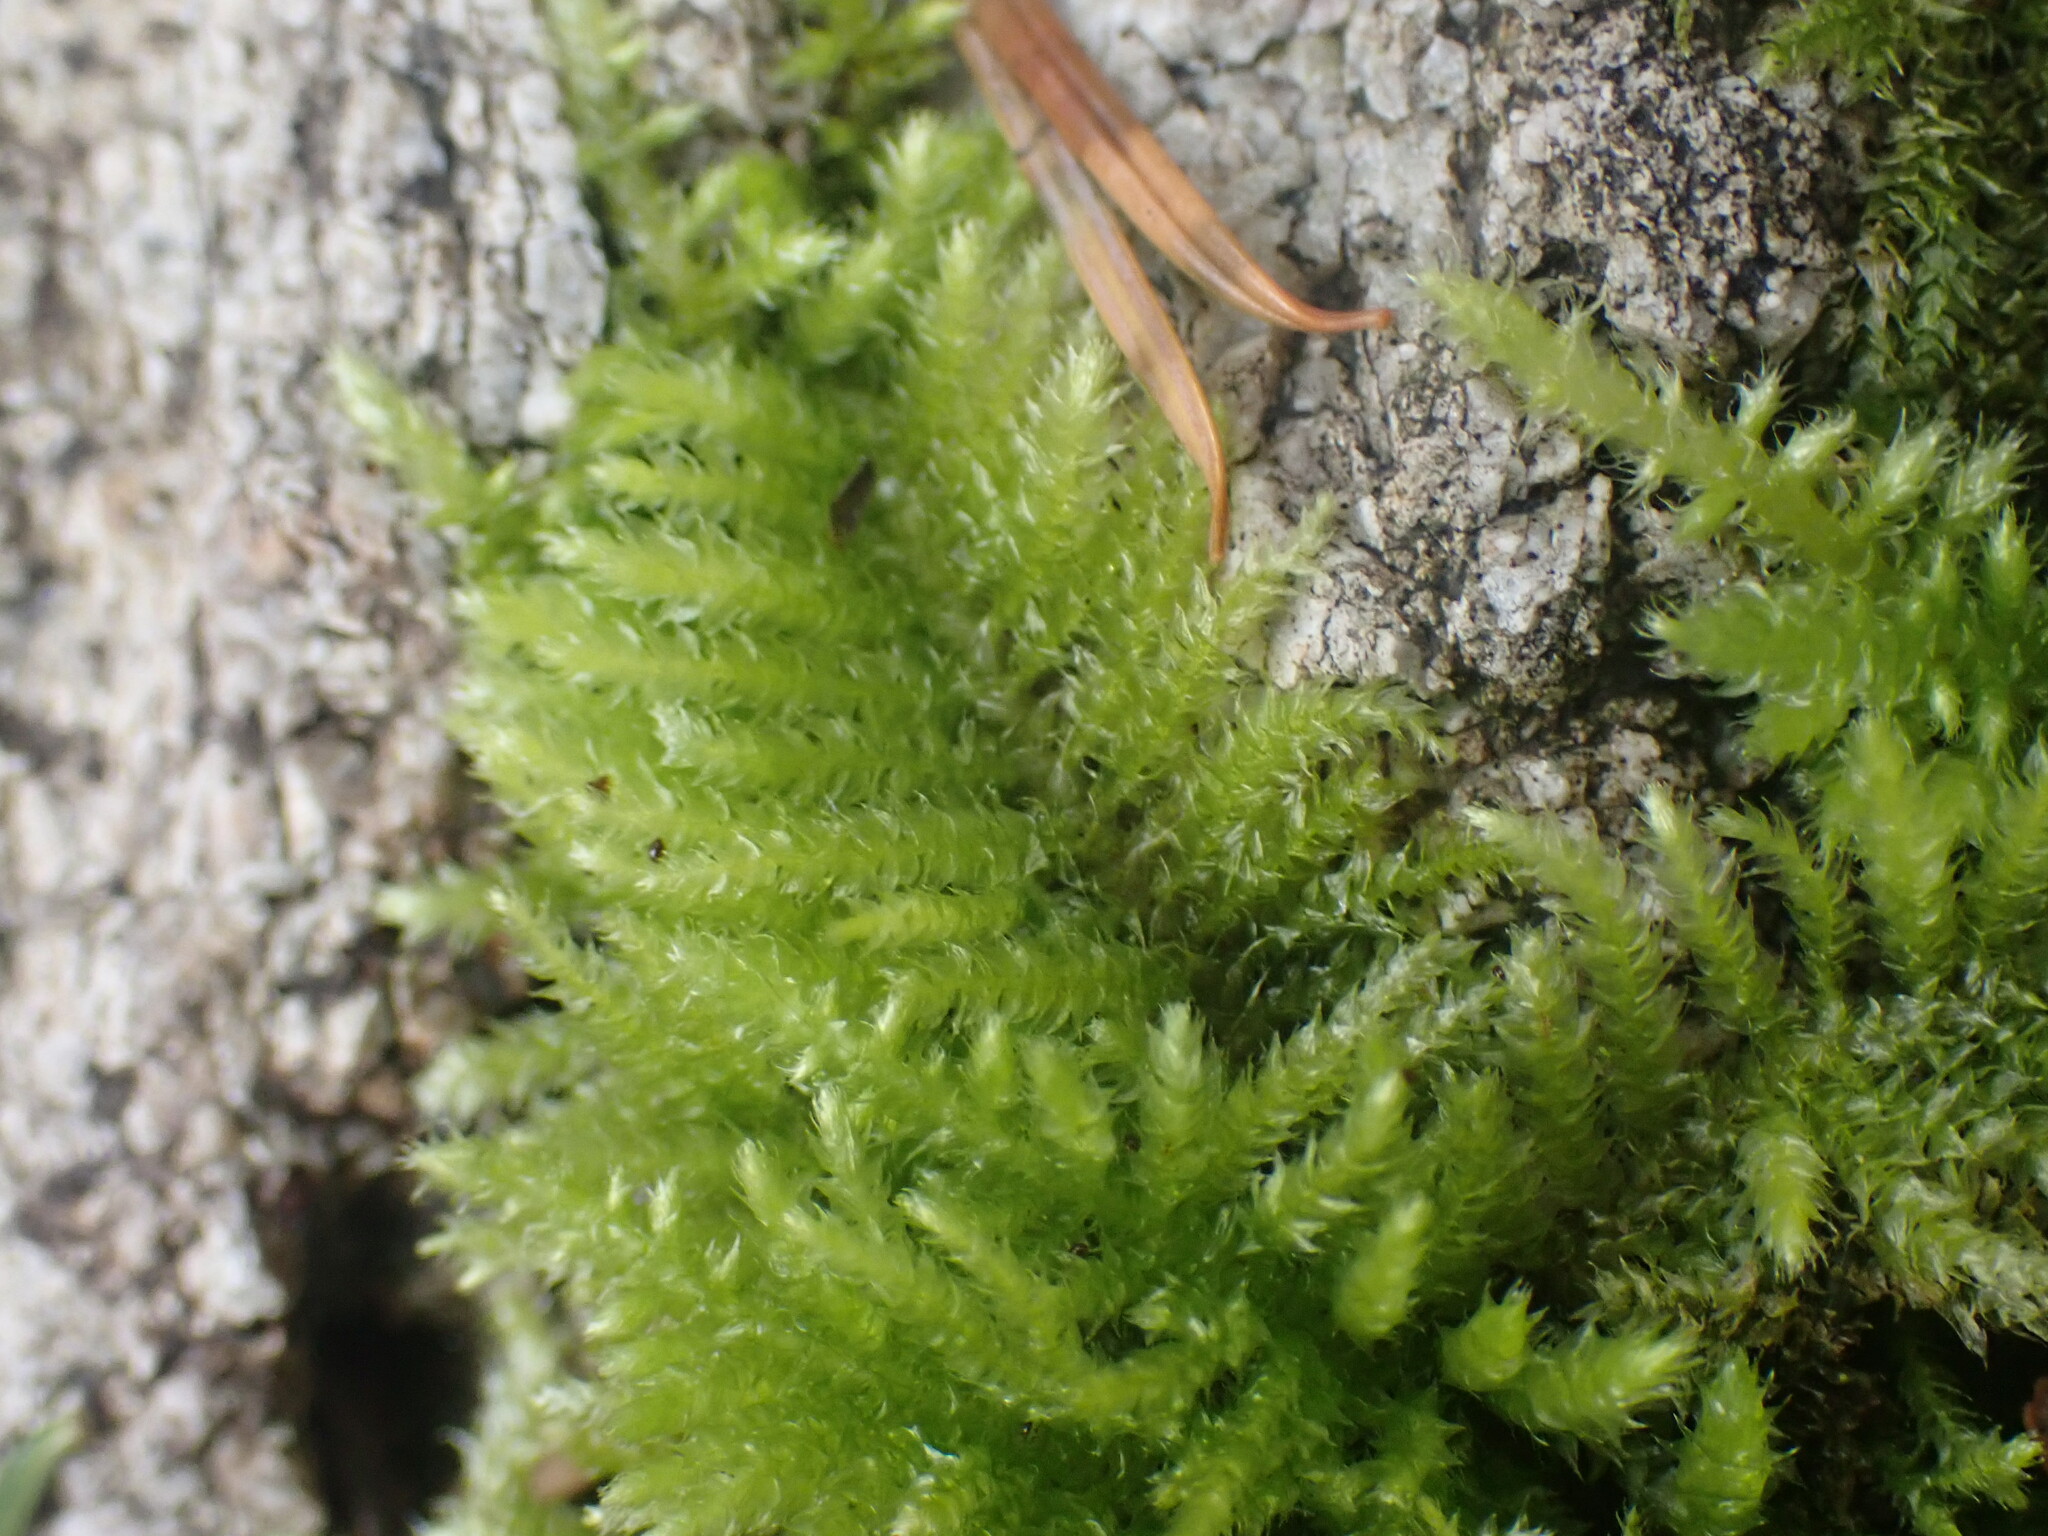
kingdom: Plantae
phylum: Bryophyta
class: Bryopsida
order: Hypnales
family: Brachytheciaceae
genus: Kindbergia
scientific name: Kindbergia oregana
